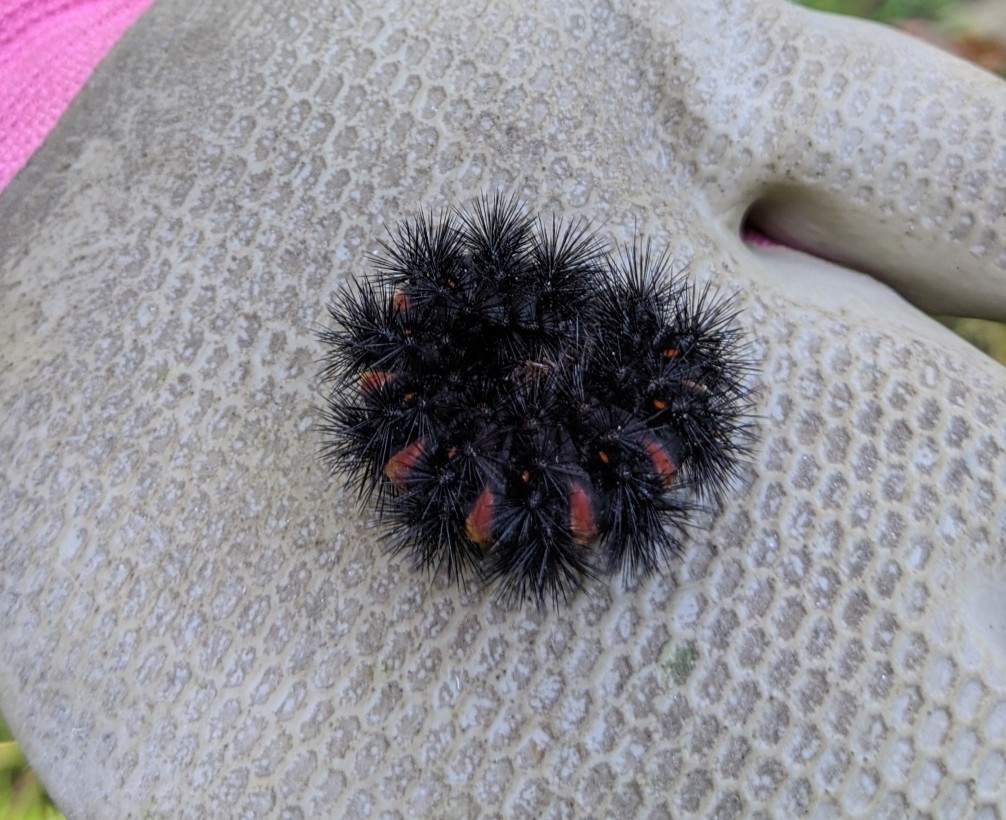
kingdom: Animalia
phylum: Arthropoda
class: Insecta
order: Lepidoptera
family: Erebidae
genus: Hypercompe
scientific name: Hypercompe scribonia
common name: Giant leopard moth
